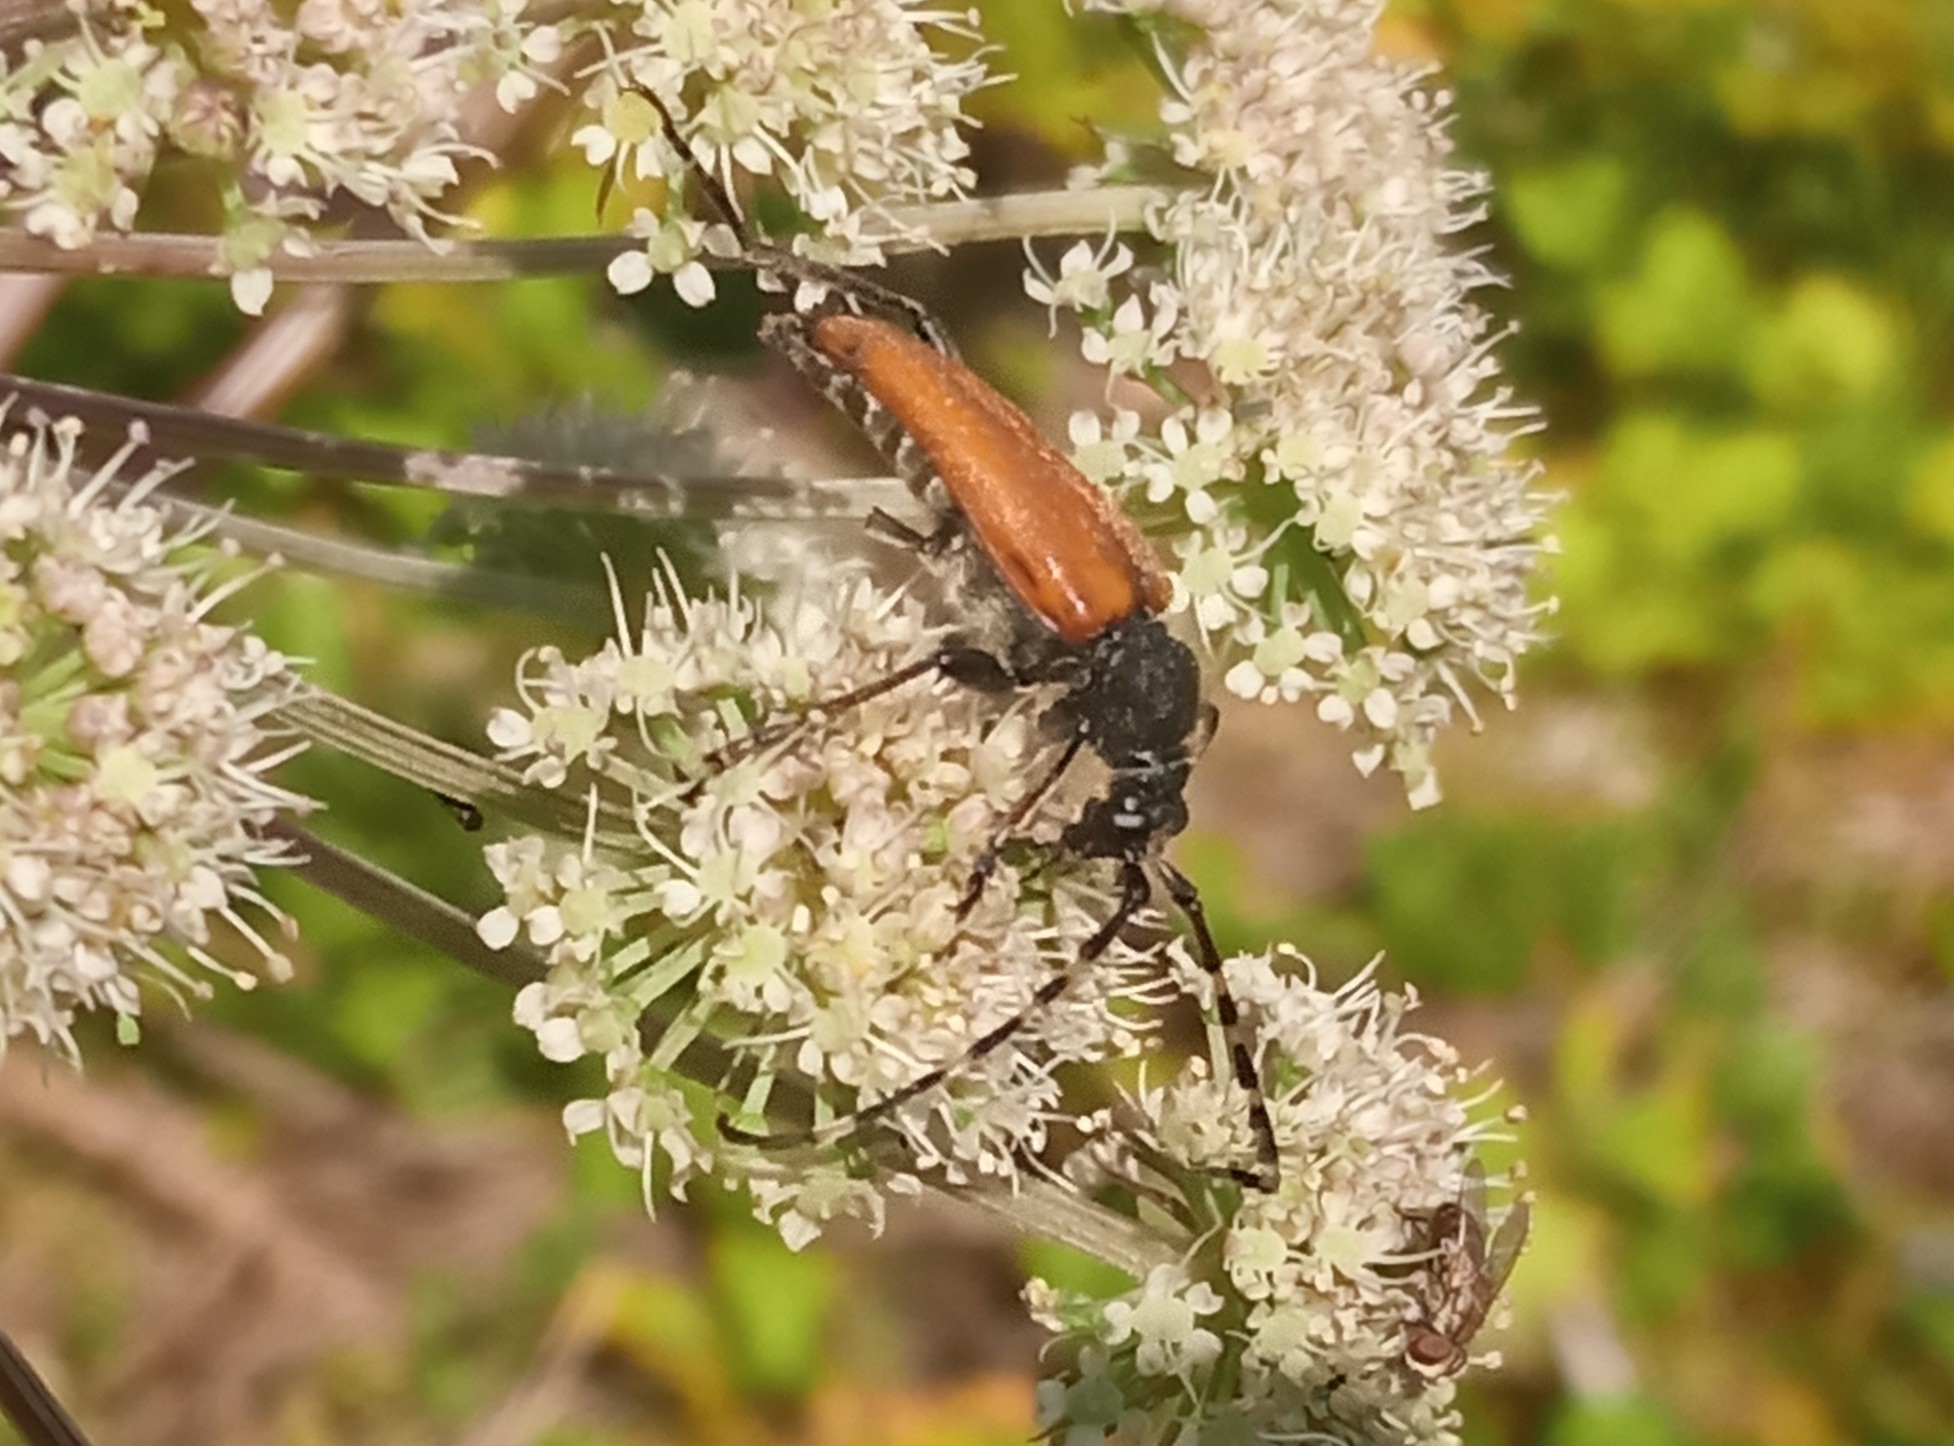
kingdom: Animalia
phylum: Arthropoda
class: Insecta
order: Coleoptera
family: Cerambycidae
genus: Stictoleptura
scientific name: Stictoleptura variicornis
